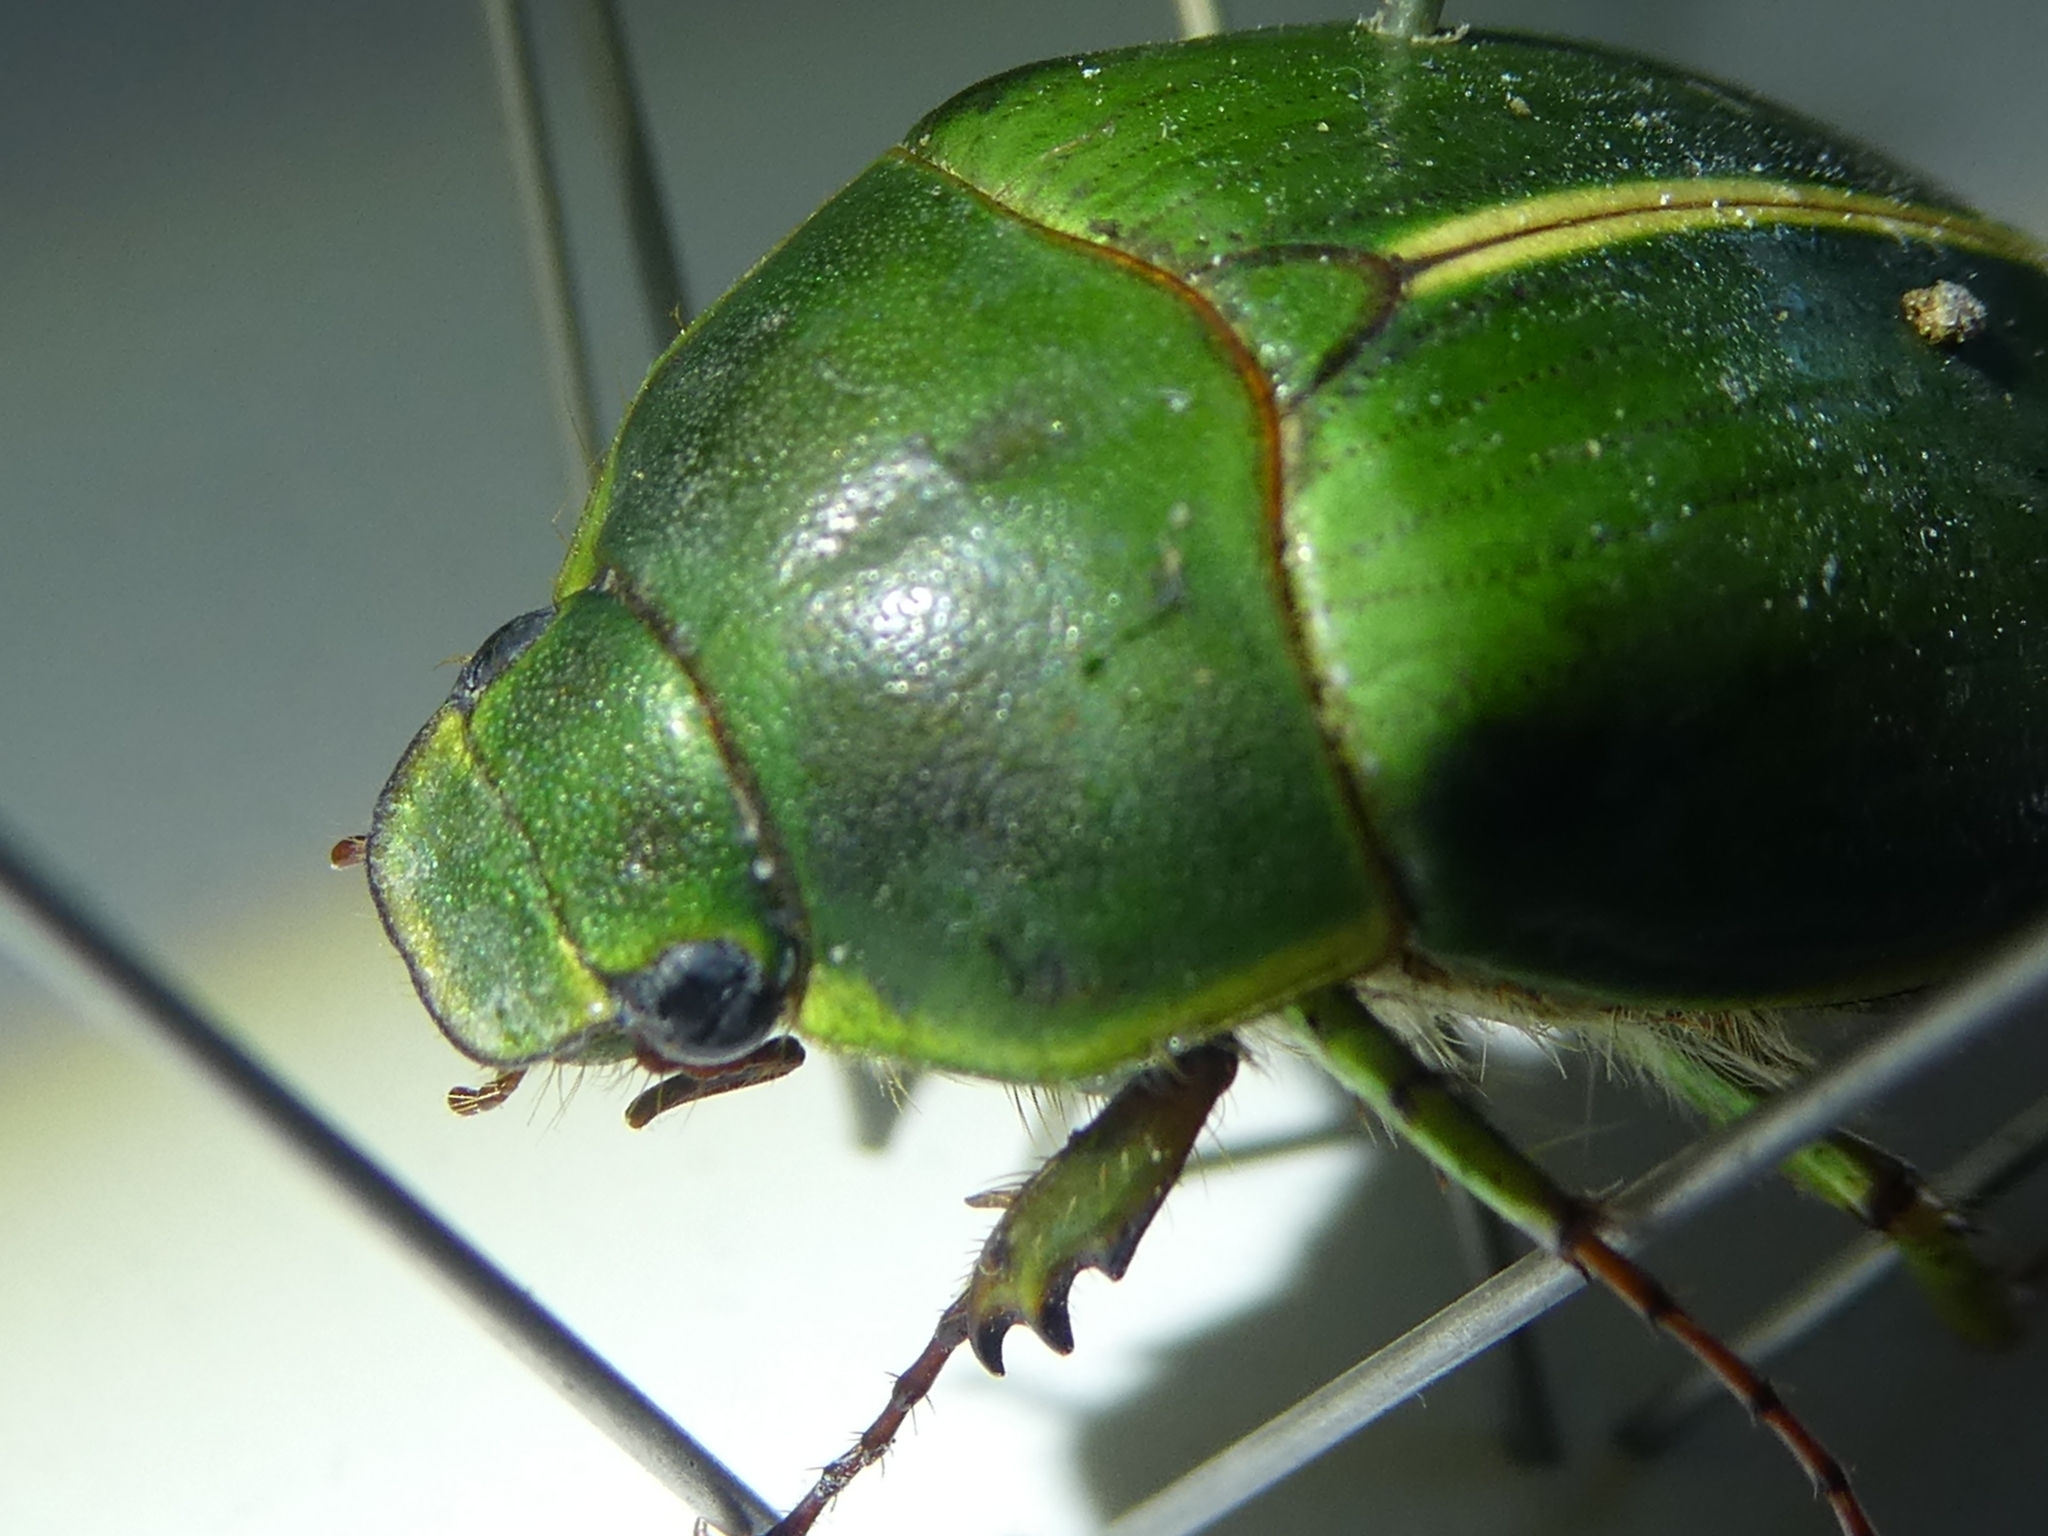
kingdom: Animalia
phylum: Arthropoda
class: Insecta
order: Coleoptera
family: Scarabaeidae
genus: Stethaspis
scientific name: Stethaspis suturalis
